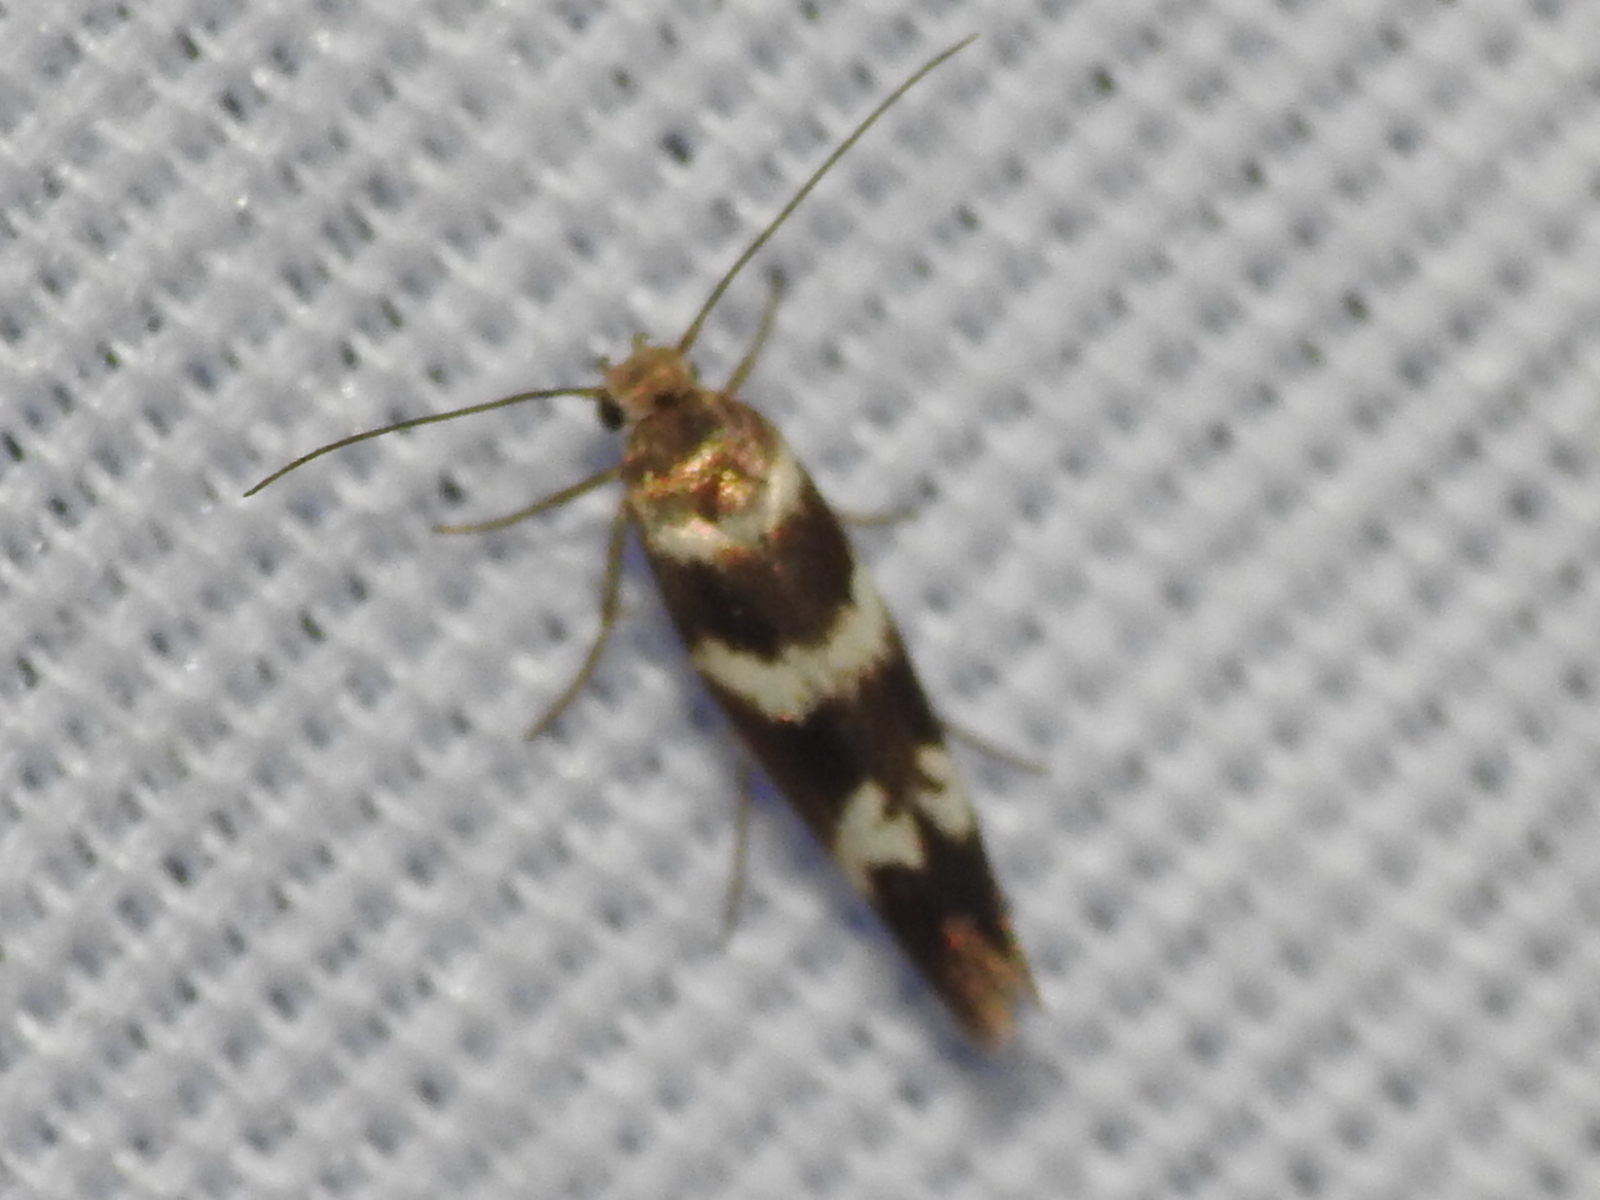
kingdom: Animalia
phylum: Arthropoda
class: Insecta
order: Lepidoptera
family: Scythrididae
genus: Scythris
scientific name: Scythris trivinctella
